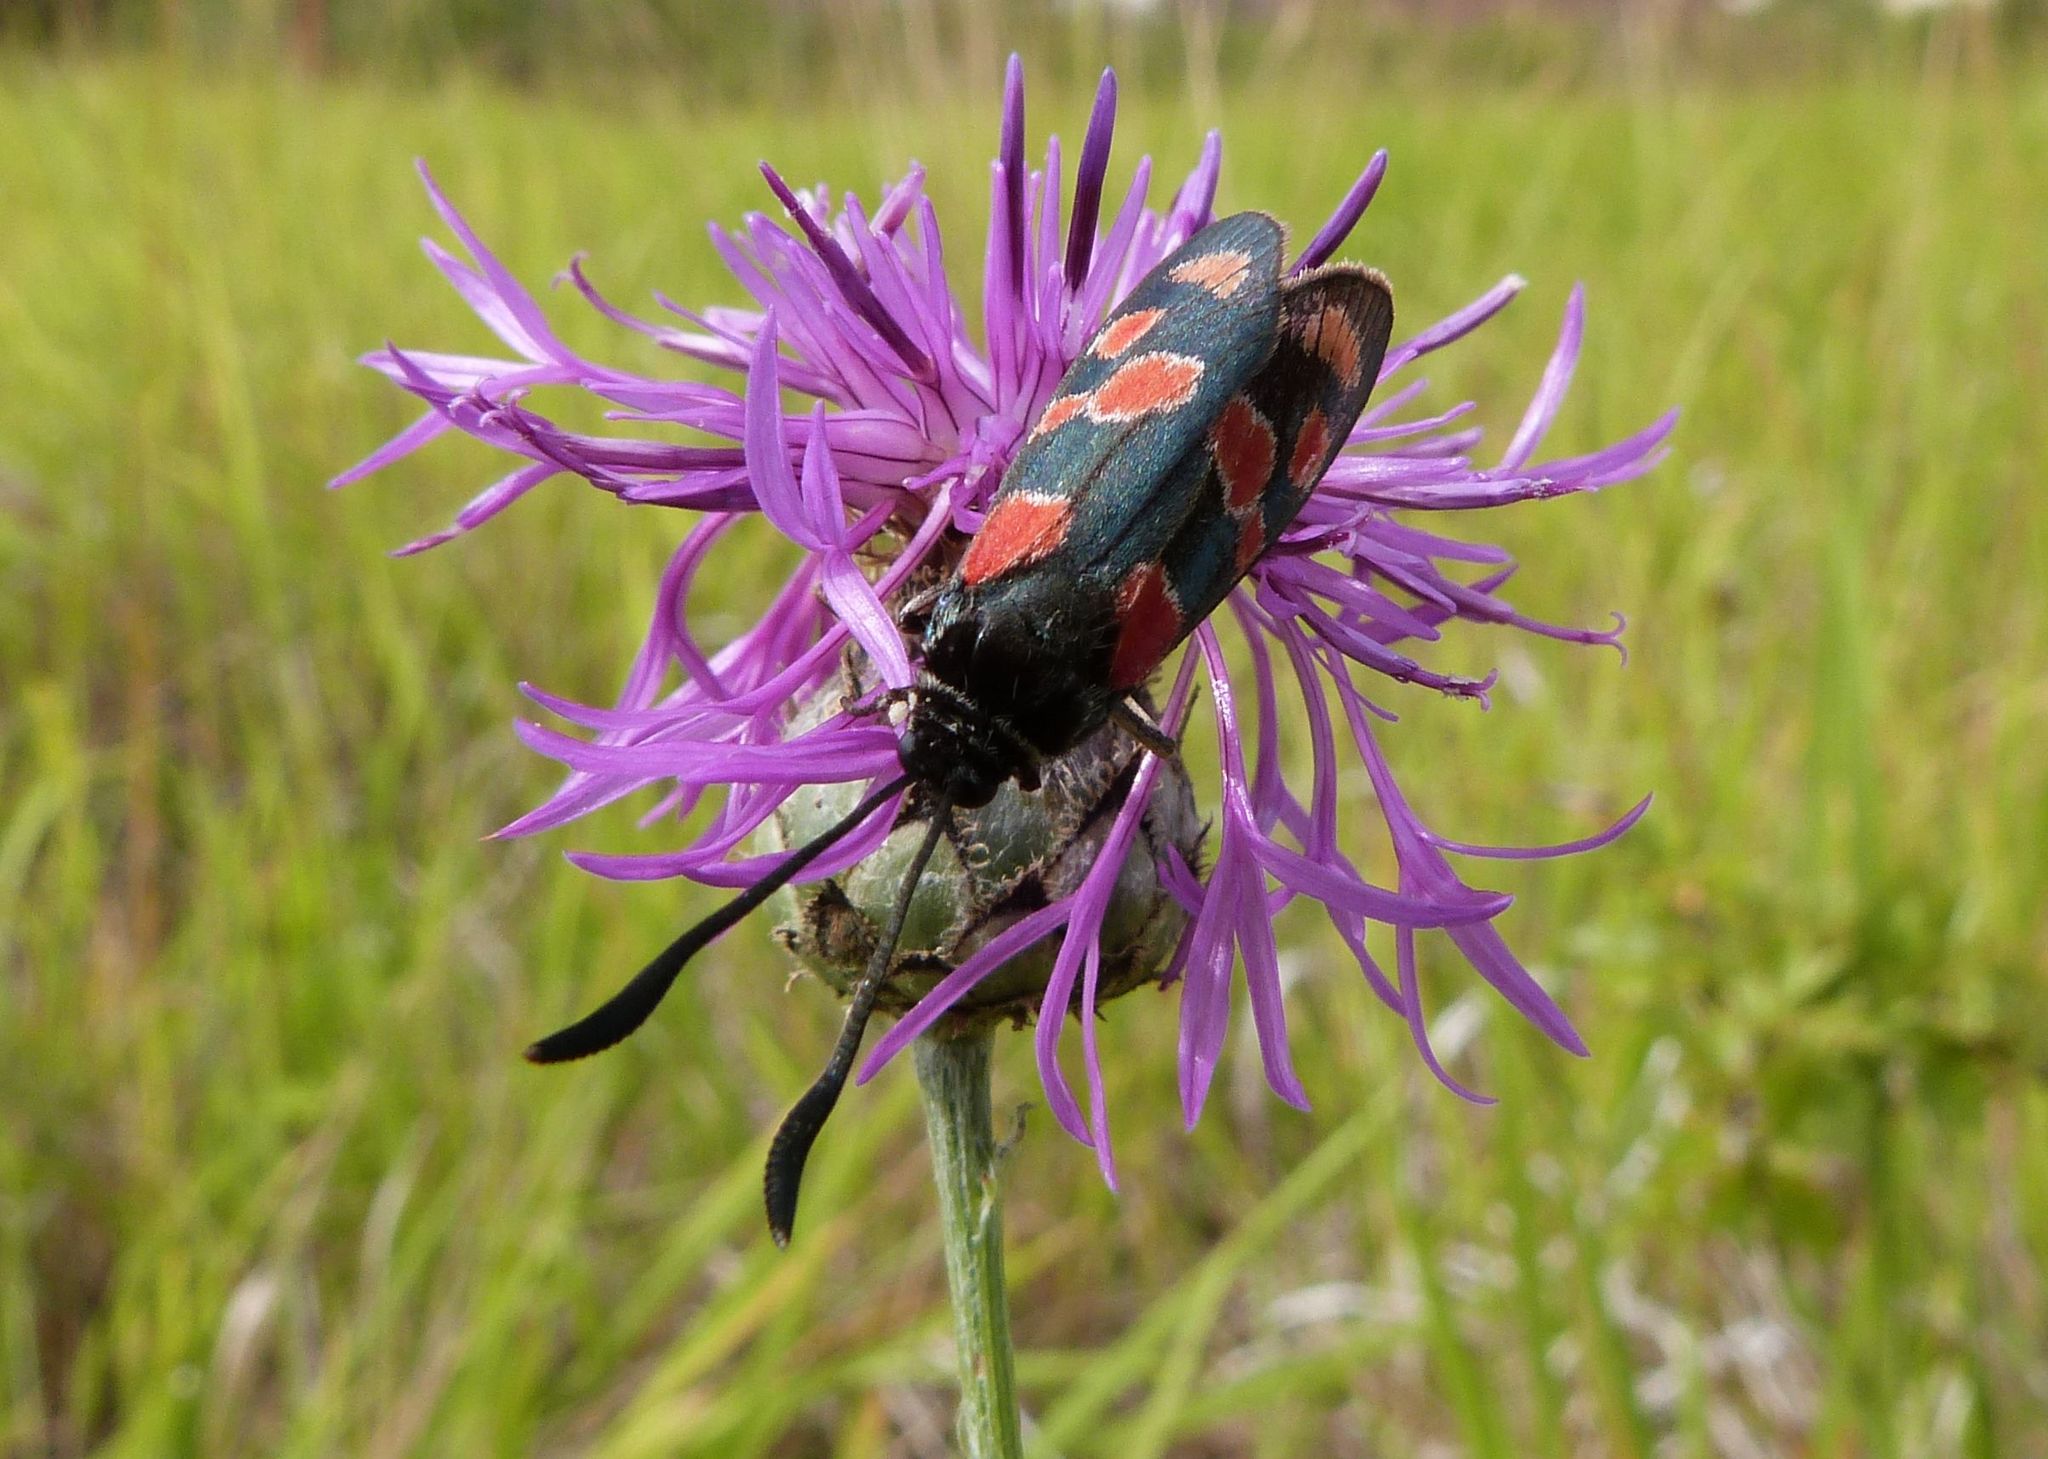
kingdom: Animalia
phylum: Arthropoda
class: Insecta
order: Lepidoptera
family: Zygaenidae
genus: Zygaena
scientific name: Zygaena carniolica
